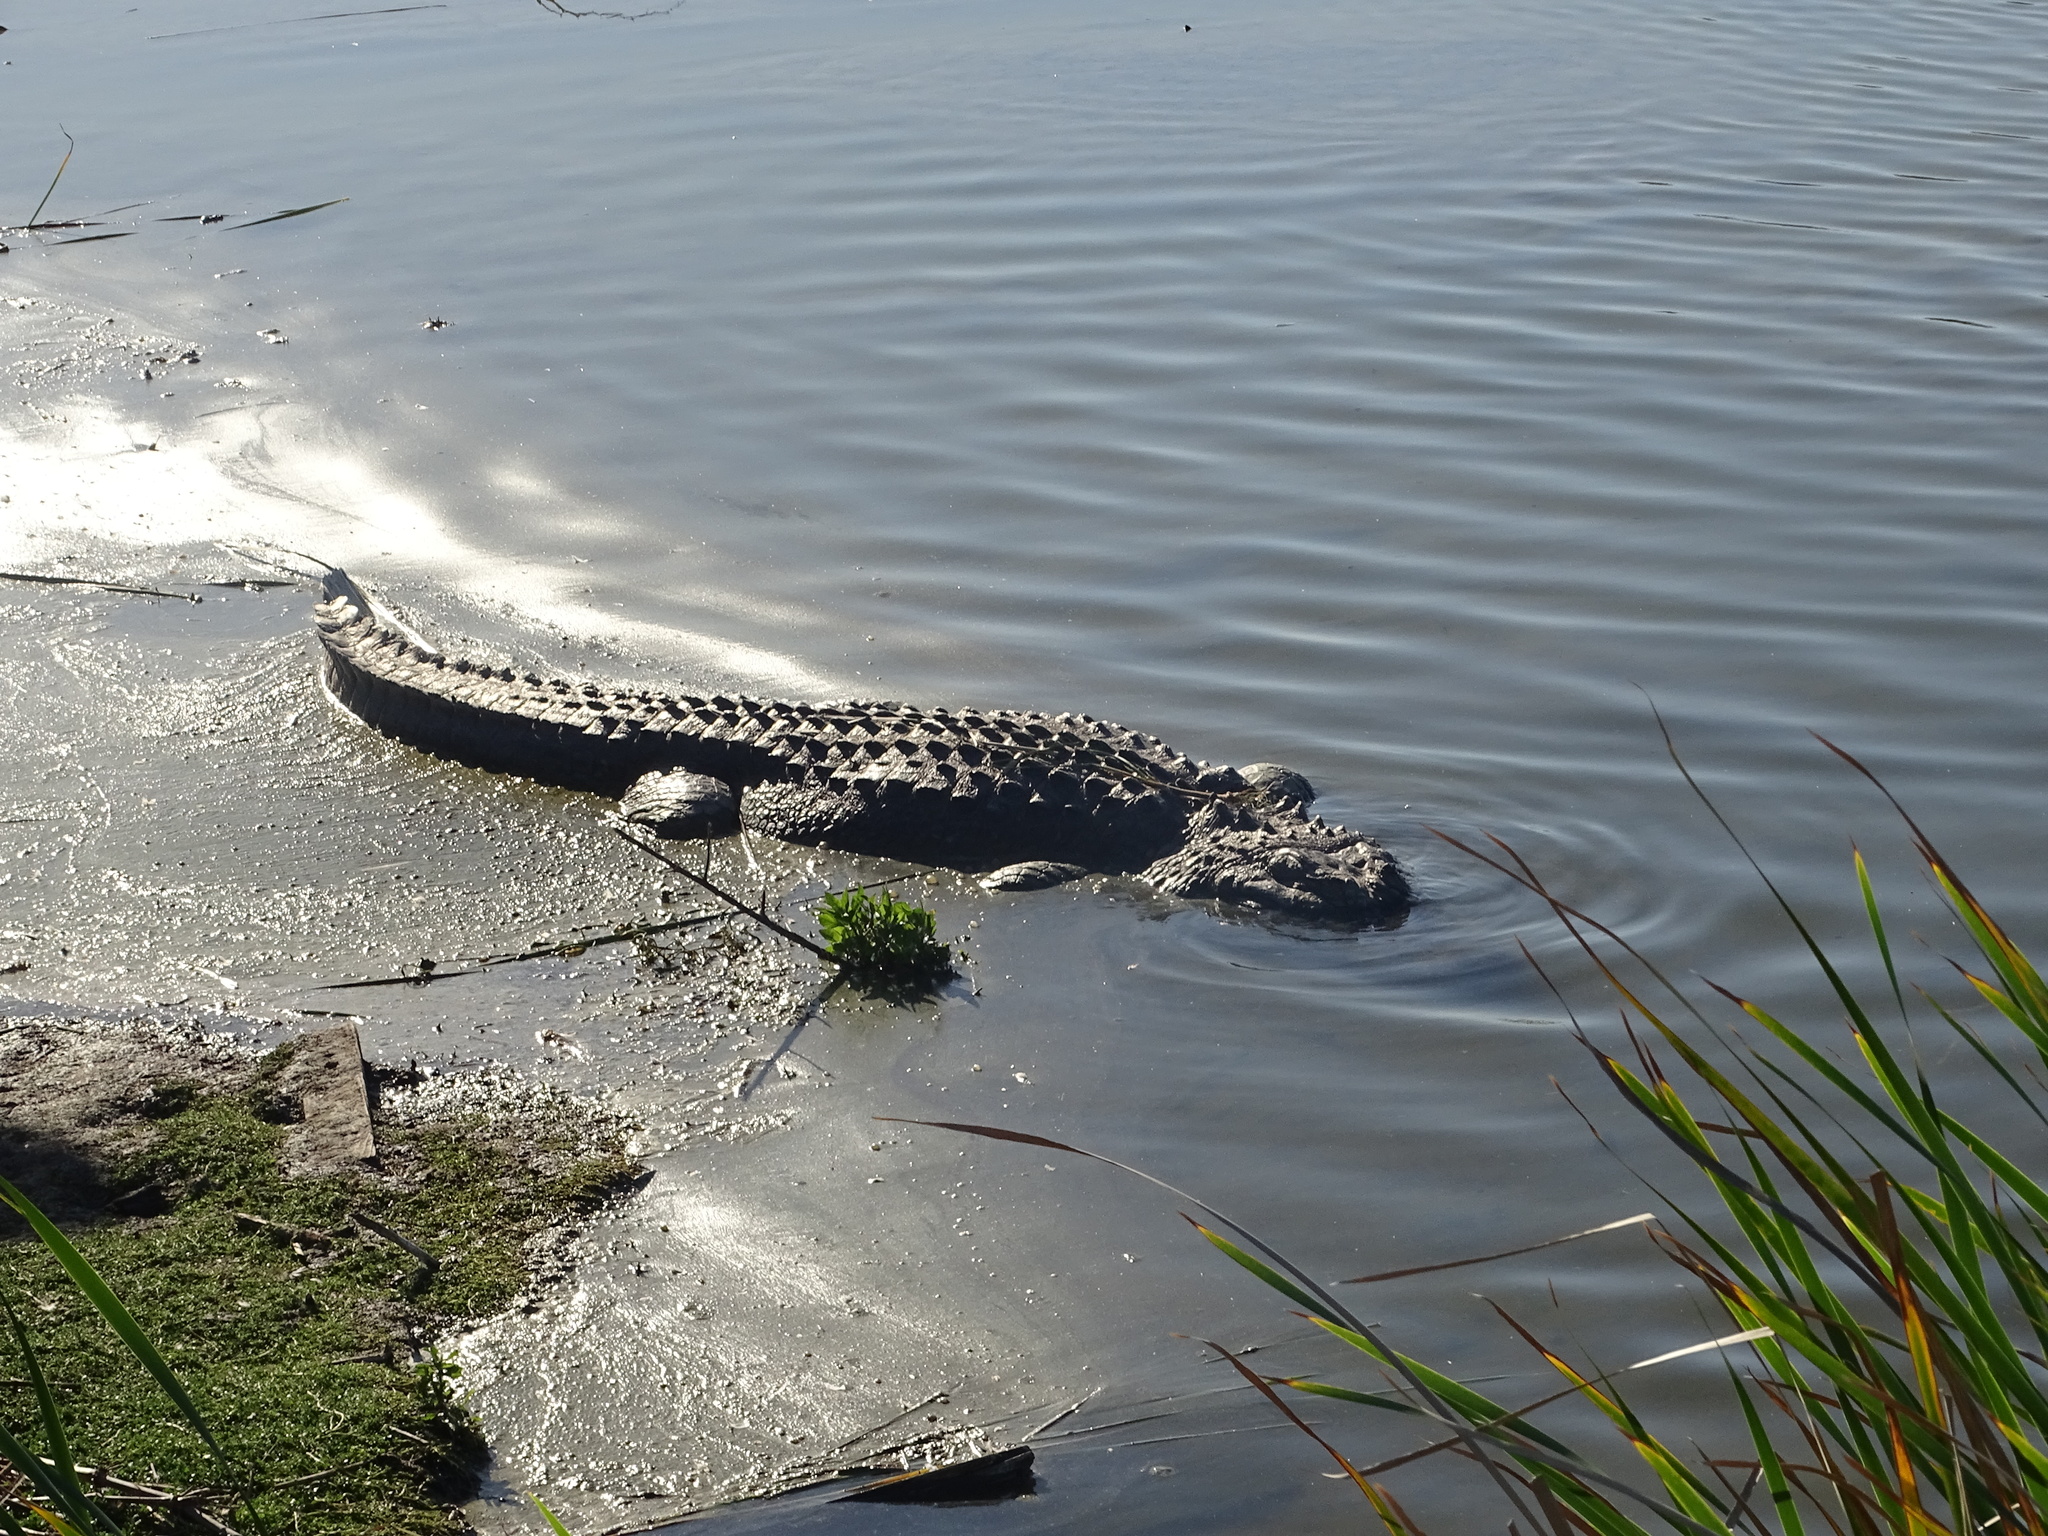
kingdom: Animalia
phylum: Chordata
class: Crocodylia
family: Alligatoridae
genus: Alligator
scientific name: Alligator mississippiensis
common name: American alligator
